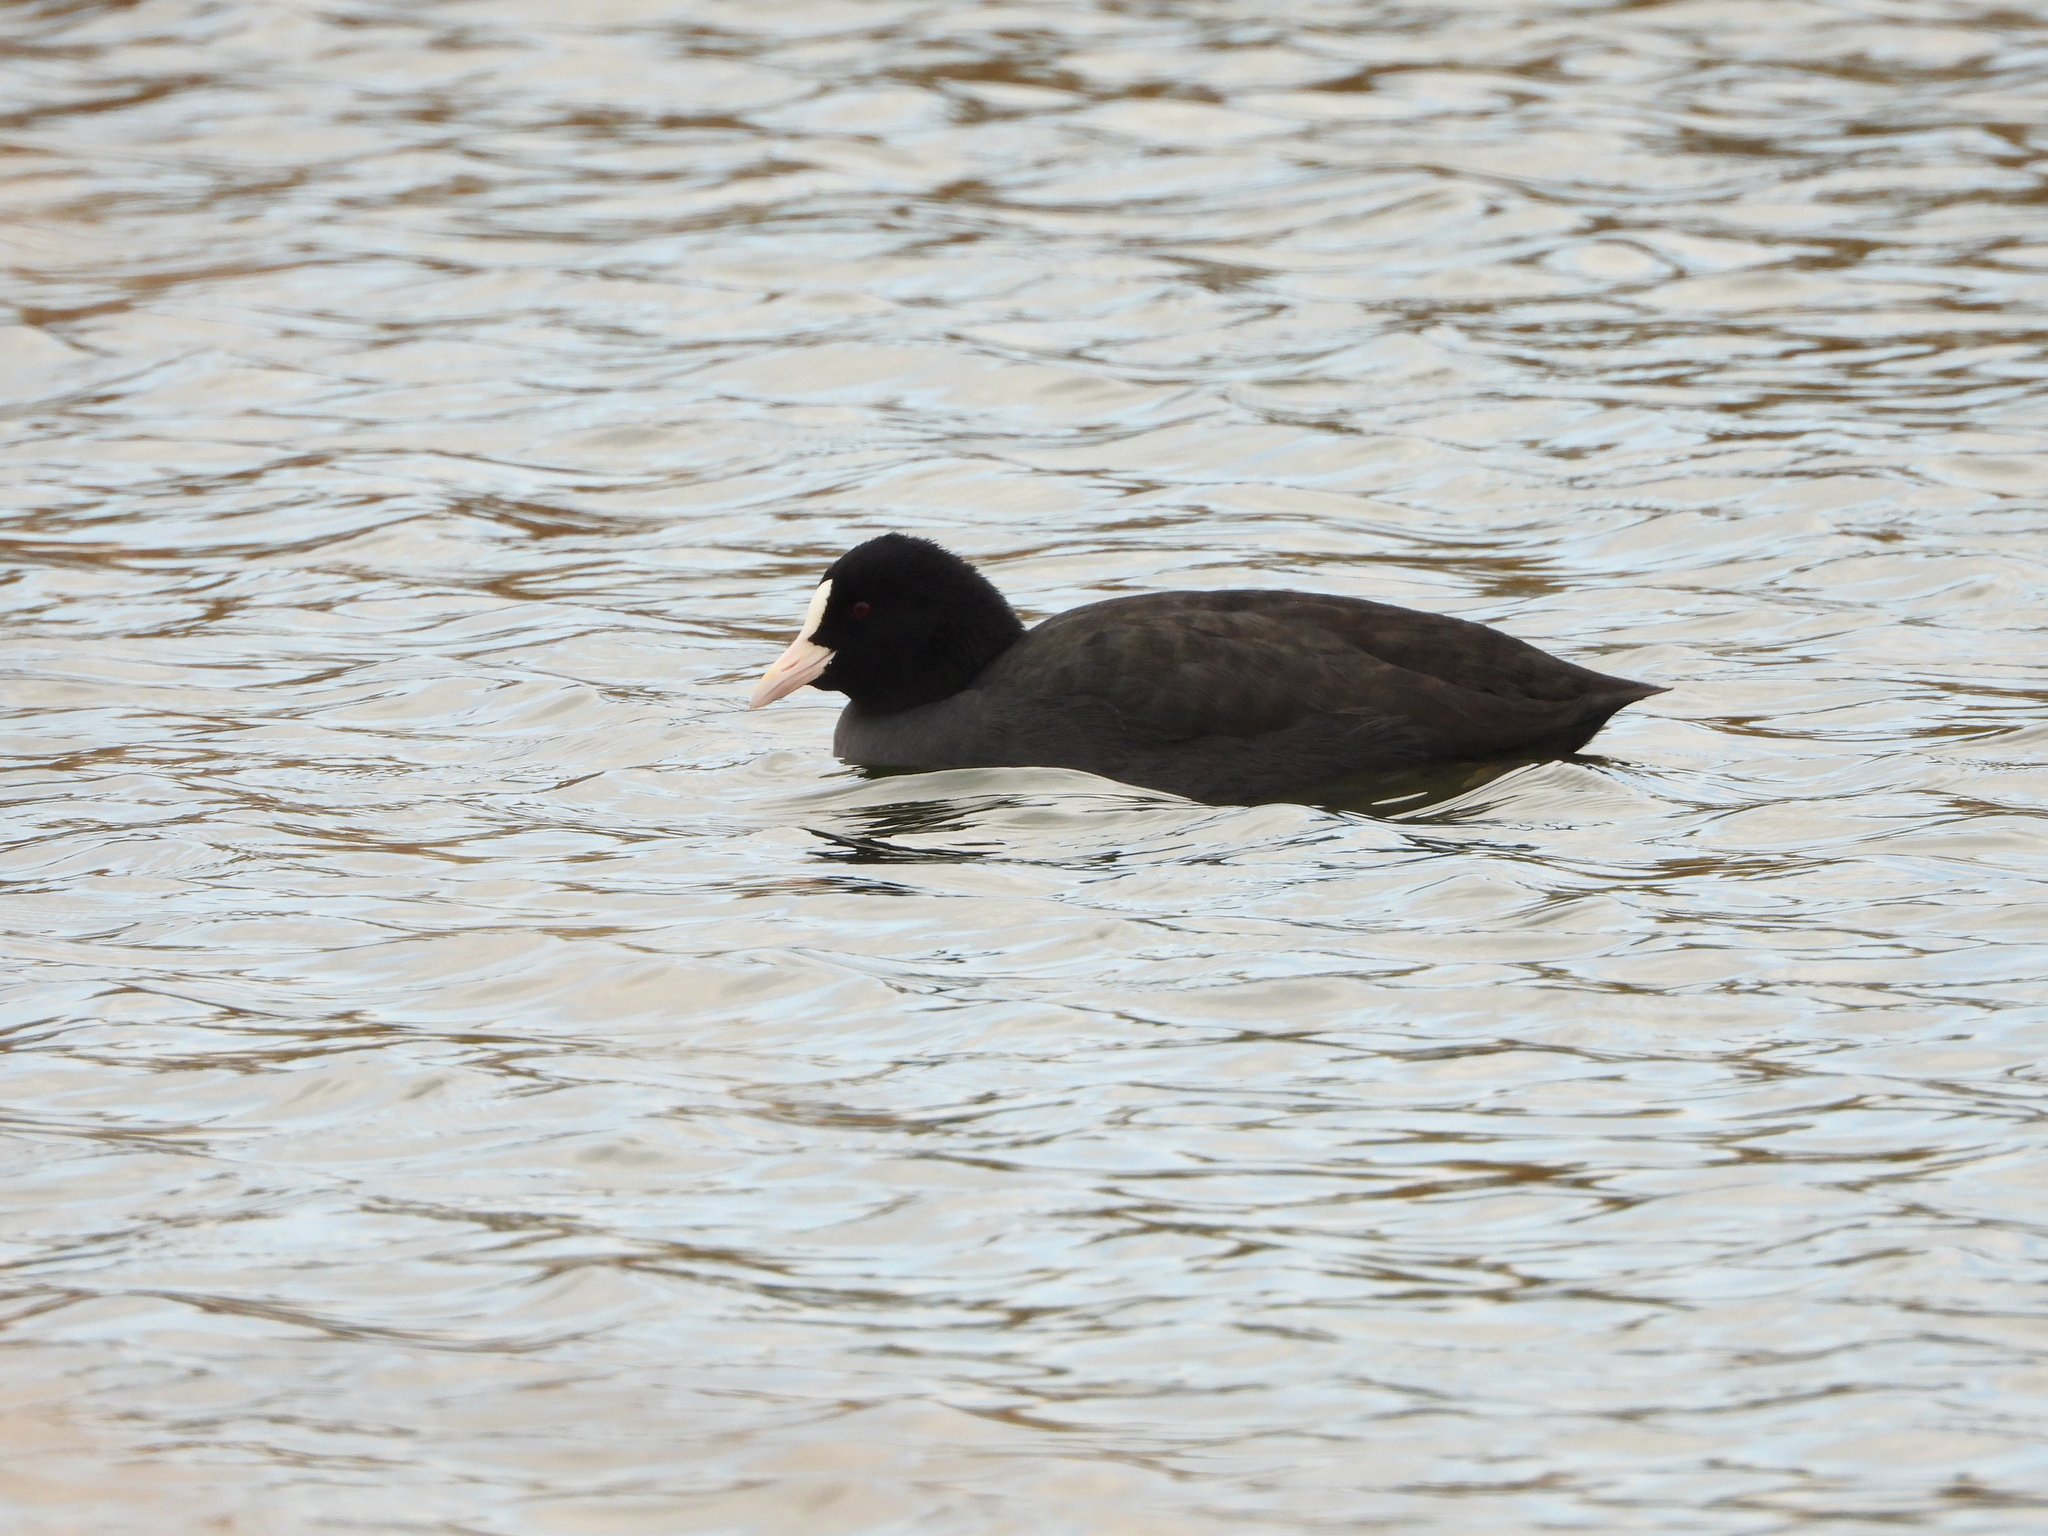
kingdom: Animalia
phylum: Chordata
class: Aves
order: Gruiformes
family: Rallidae
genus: Fulica
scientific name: Fulica atra
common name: Eurasian coot
